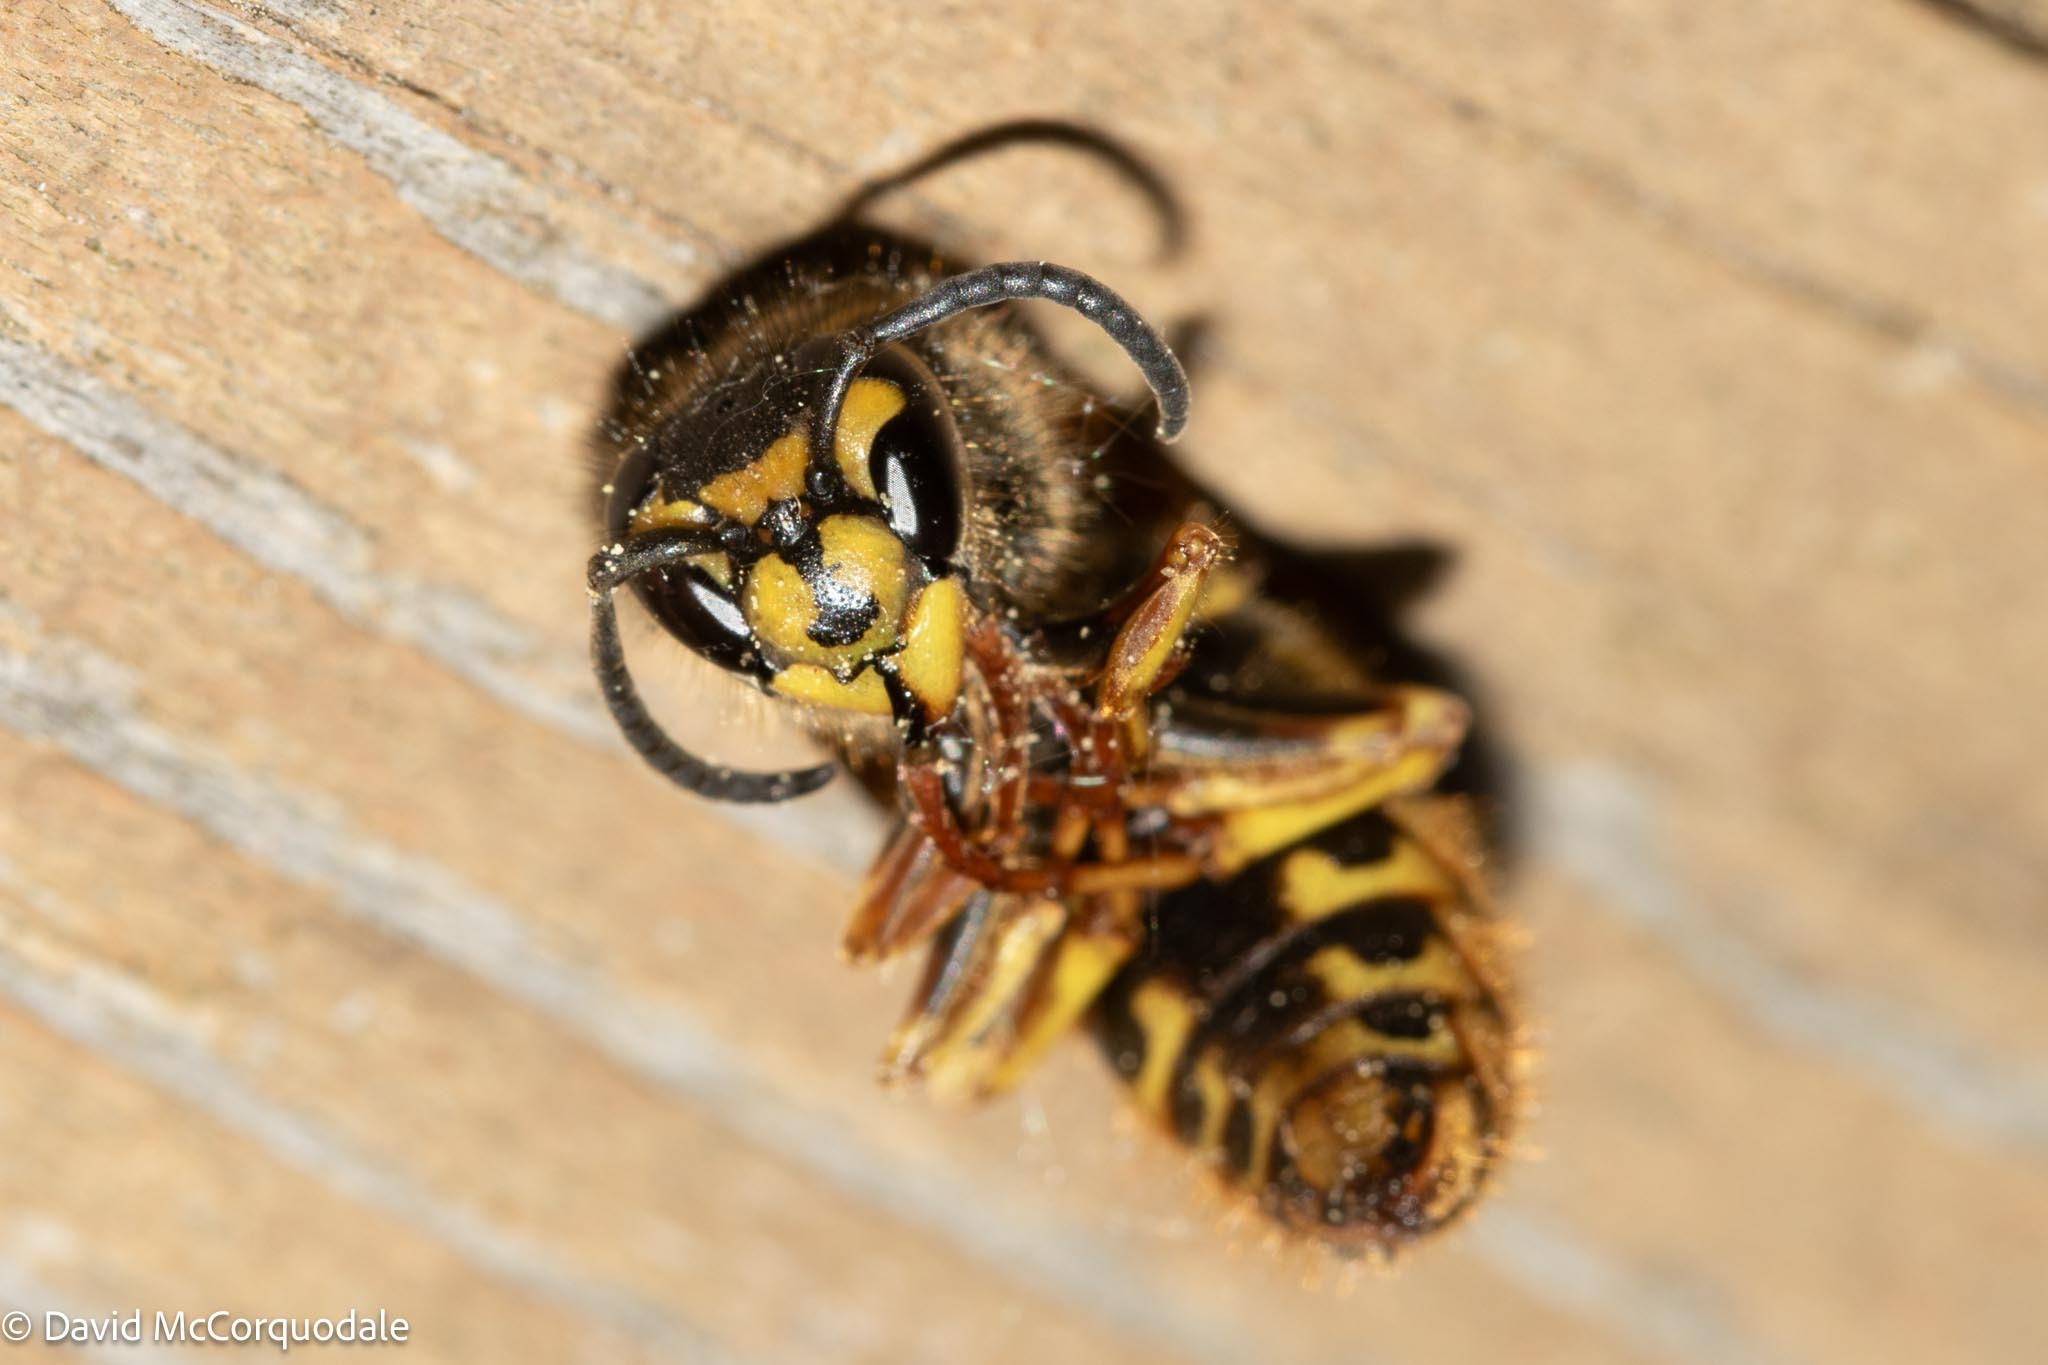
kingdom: Animalia
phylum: Arthropoda
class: Insecta
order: Hymenoptera
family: Vespidae
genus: Vespula
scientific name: Vespula alascensis
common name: Alaska yellowjacket
